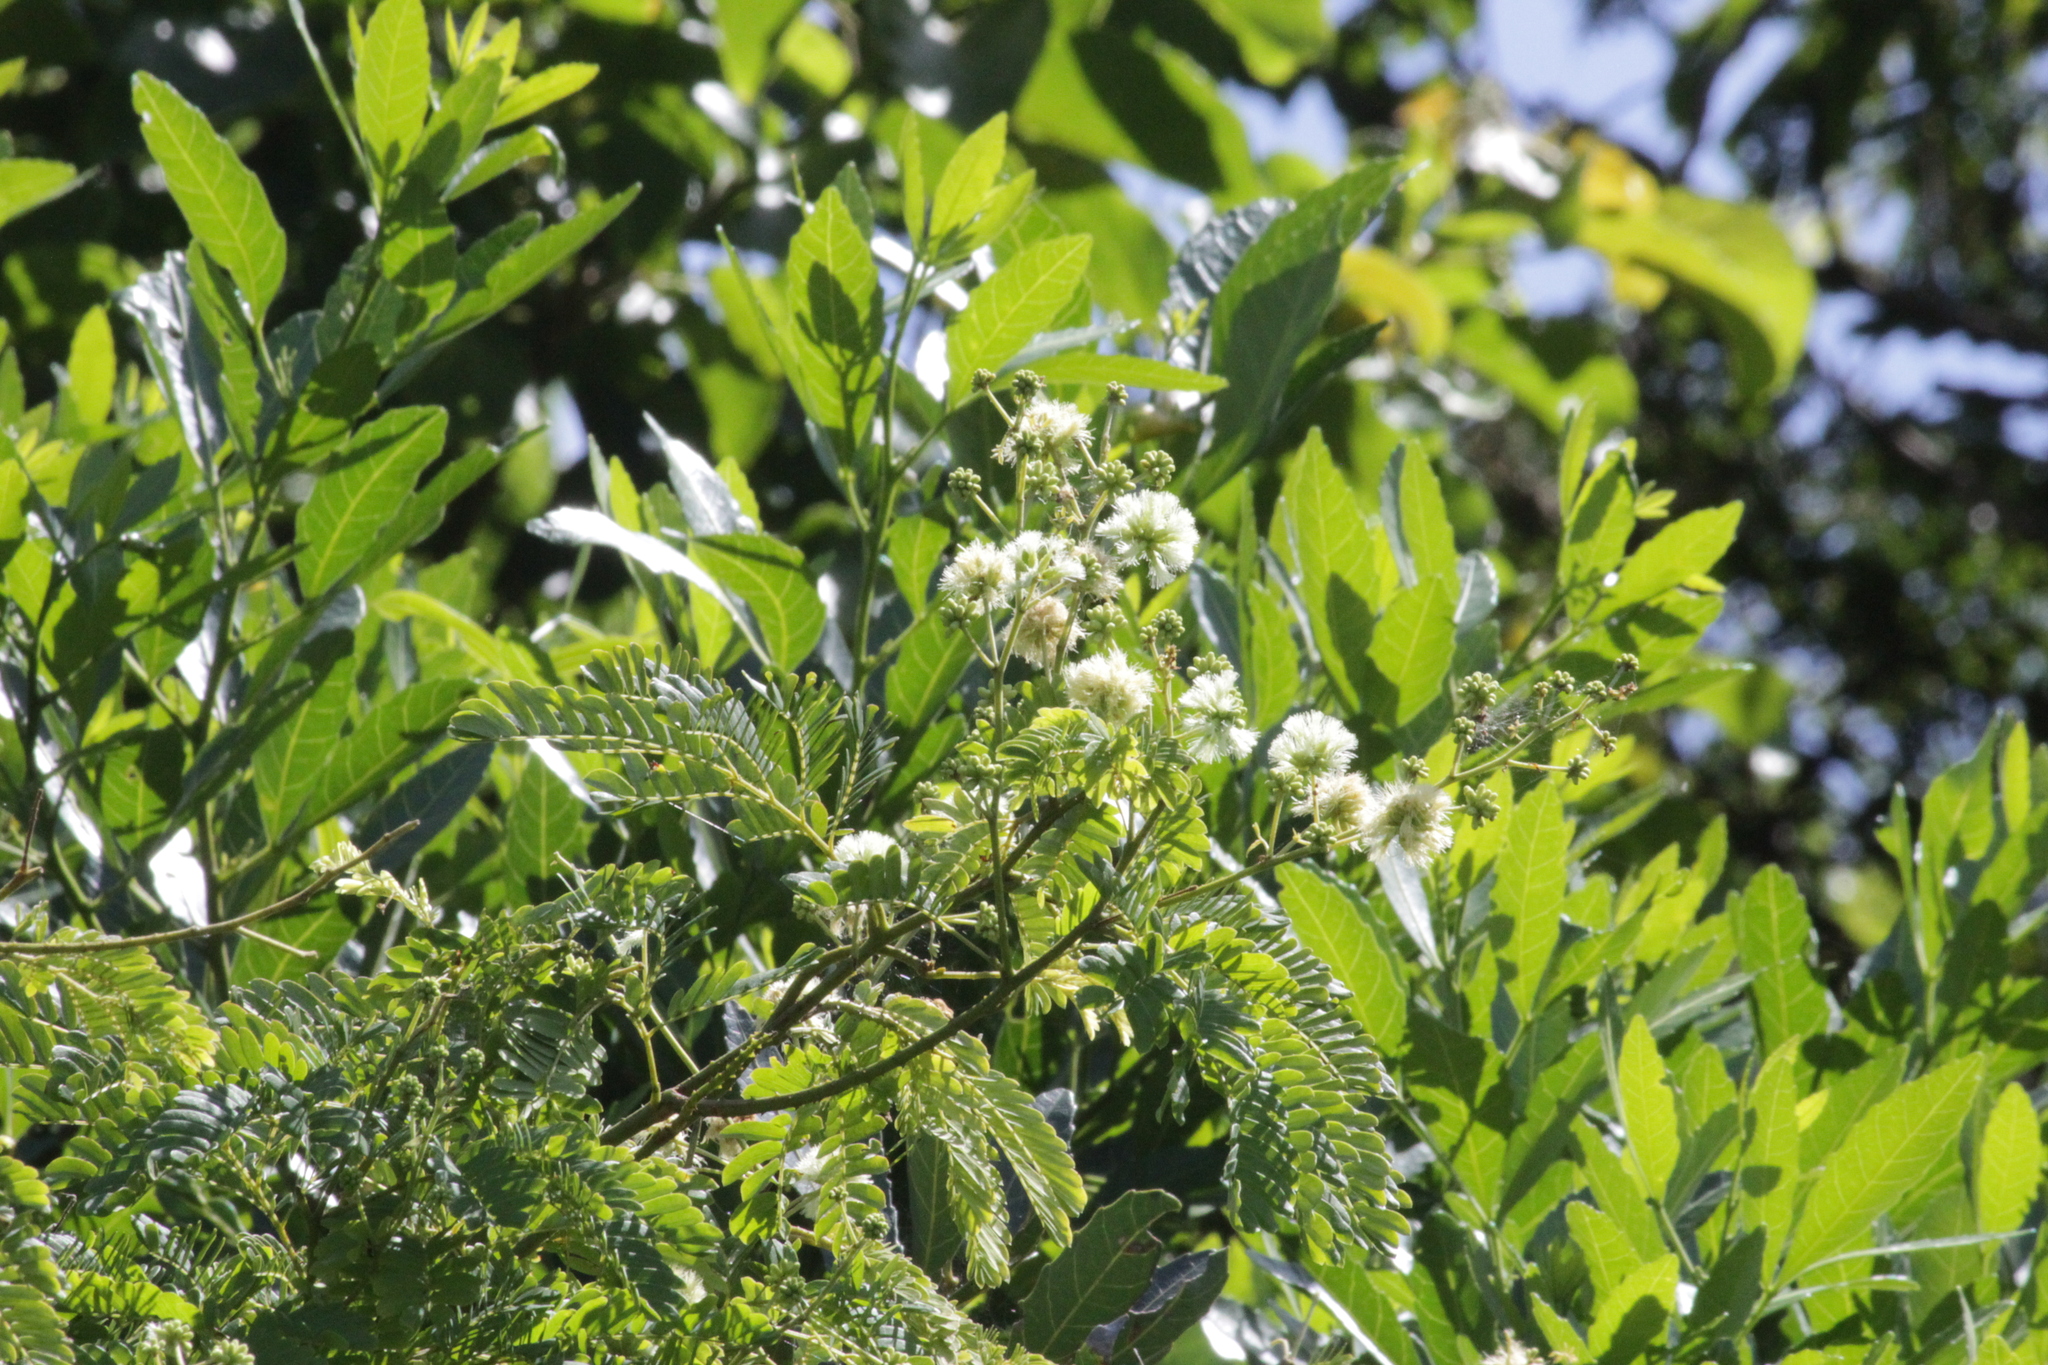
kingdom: Plantae
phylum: Tracheophyta
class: Magnoliopsida
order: Fabales
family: Fabaceae
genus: Senegalia
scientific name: Senegalia kraussiana
